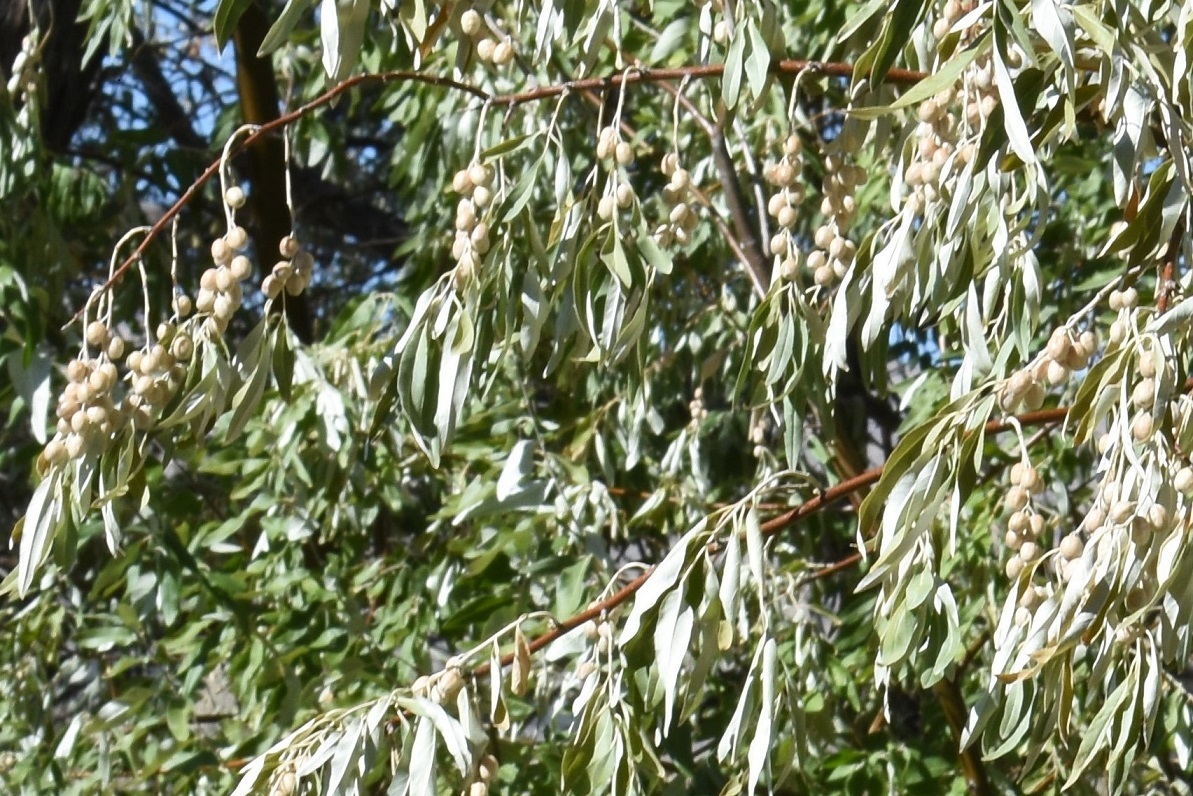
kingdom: Plantae
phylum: Tracheophyta
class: Magnoliopsida
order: Rosales
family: Elaeagnaceae
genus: Elaeagnus
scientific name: Elaeagnus angustifolia
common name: Russian olive
